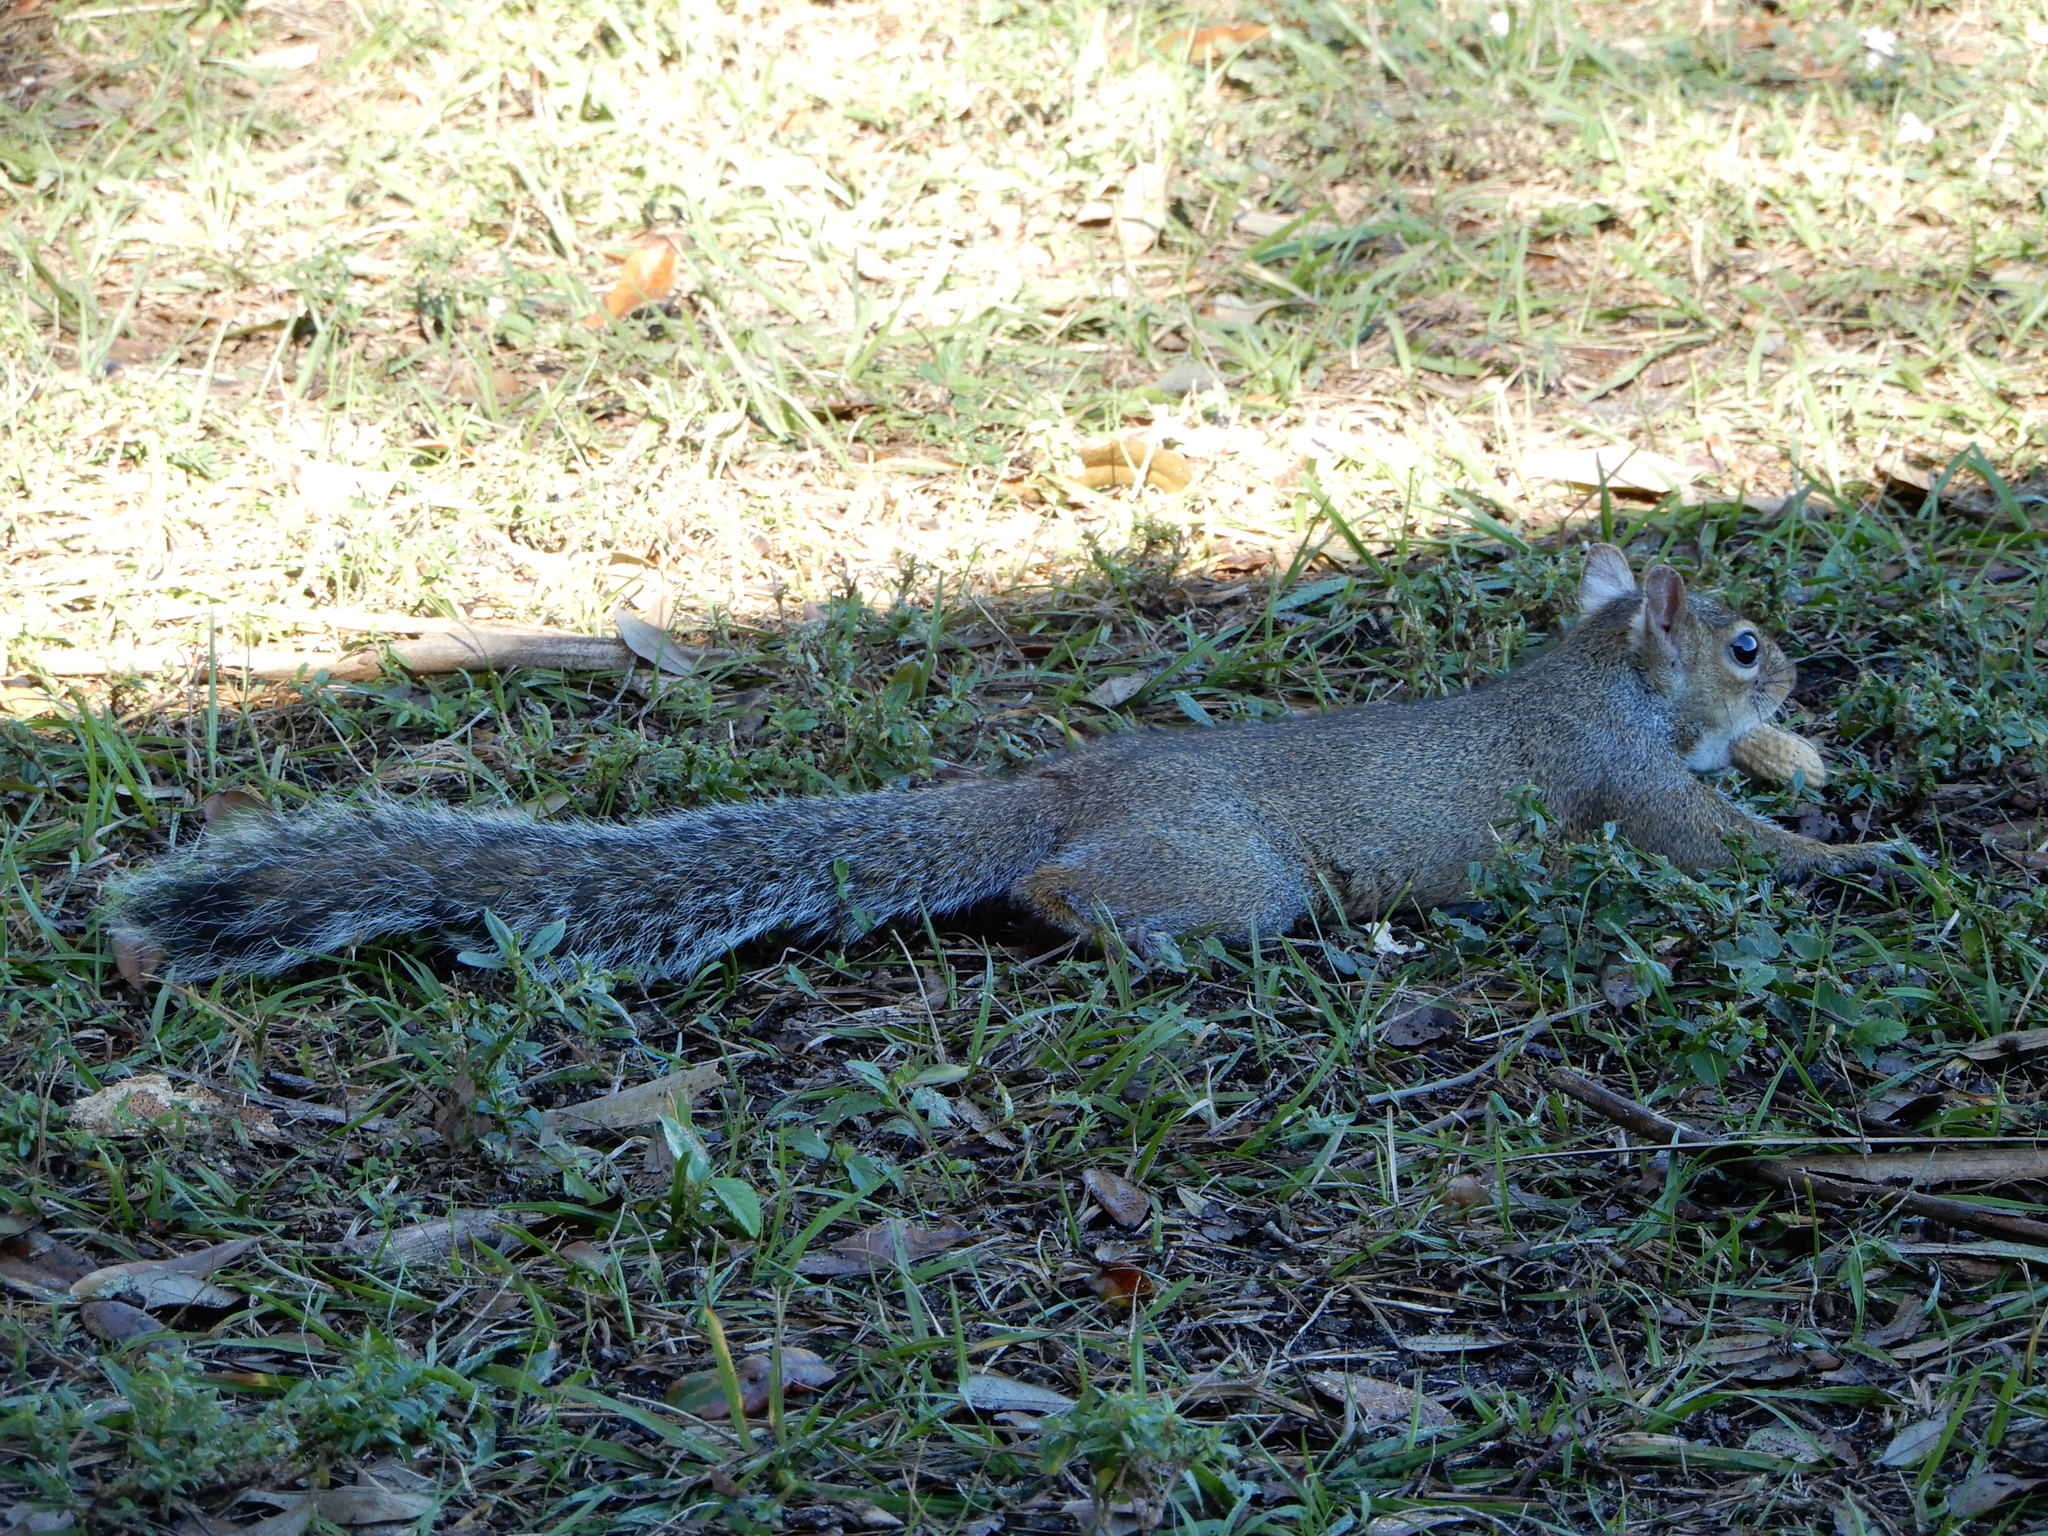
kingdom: Animalia
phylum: Chordata
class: Mammalia
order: Rodentia
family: Sciuridae
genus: Sciurus
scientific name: Sciurus carolinensis
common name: Eastern gray squirrel
